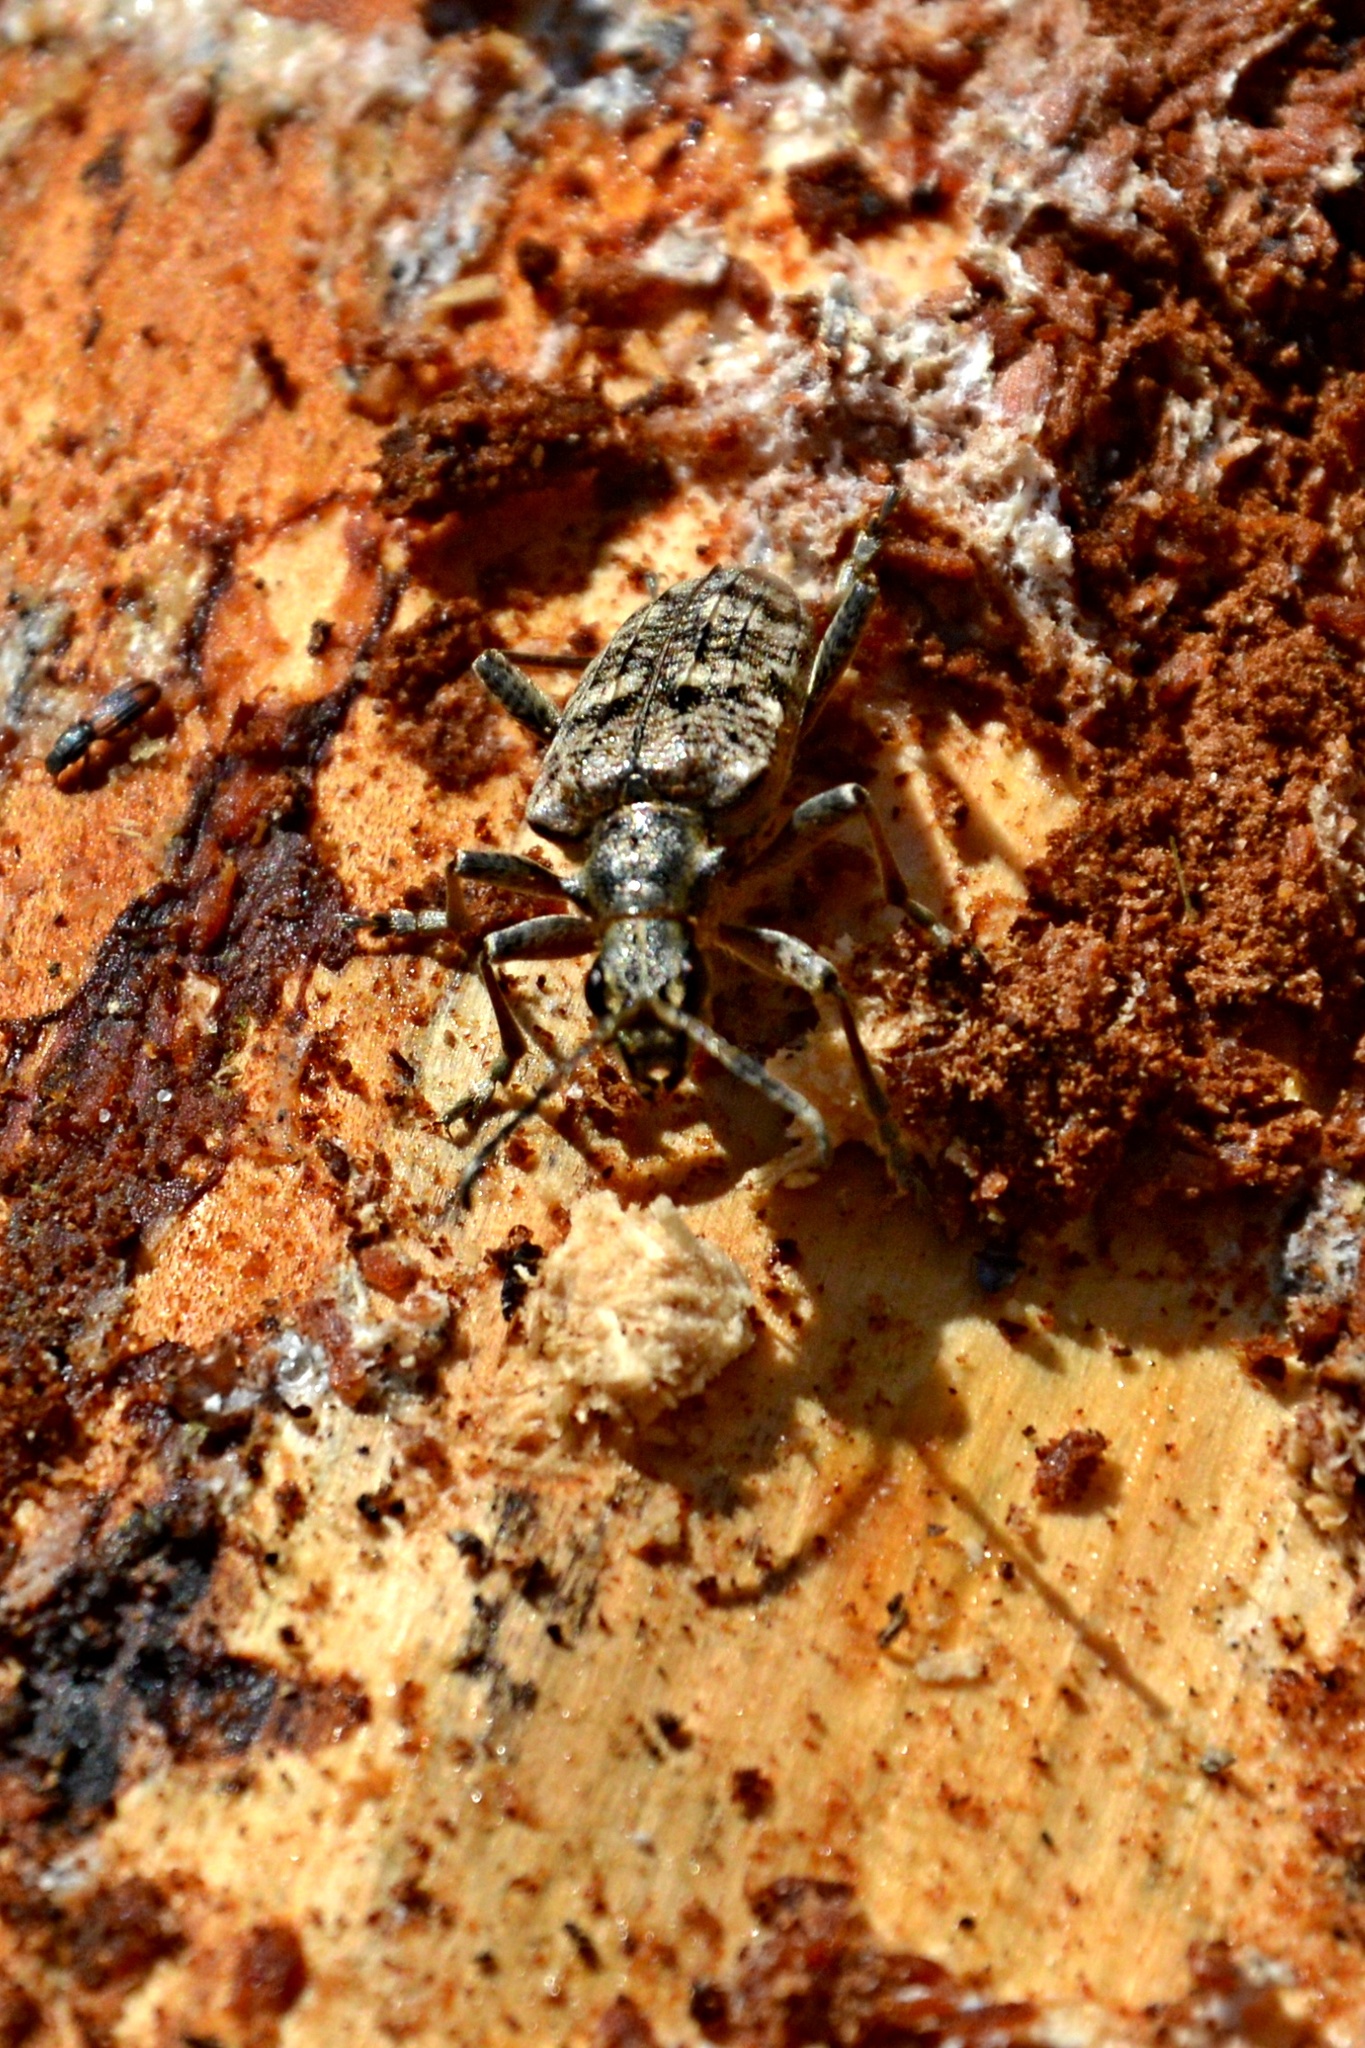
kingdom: Animalia
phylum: Arthropoda
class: Insecta
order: Coleoptera
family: Cerambycidae
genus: Rhagium
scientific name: Rhagium inquisitor
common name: Ribbed pine borer
